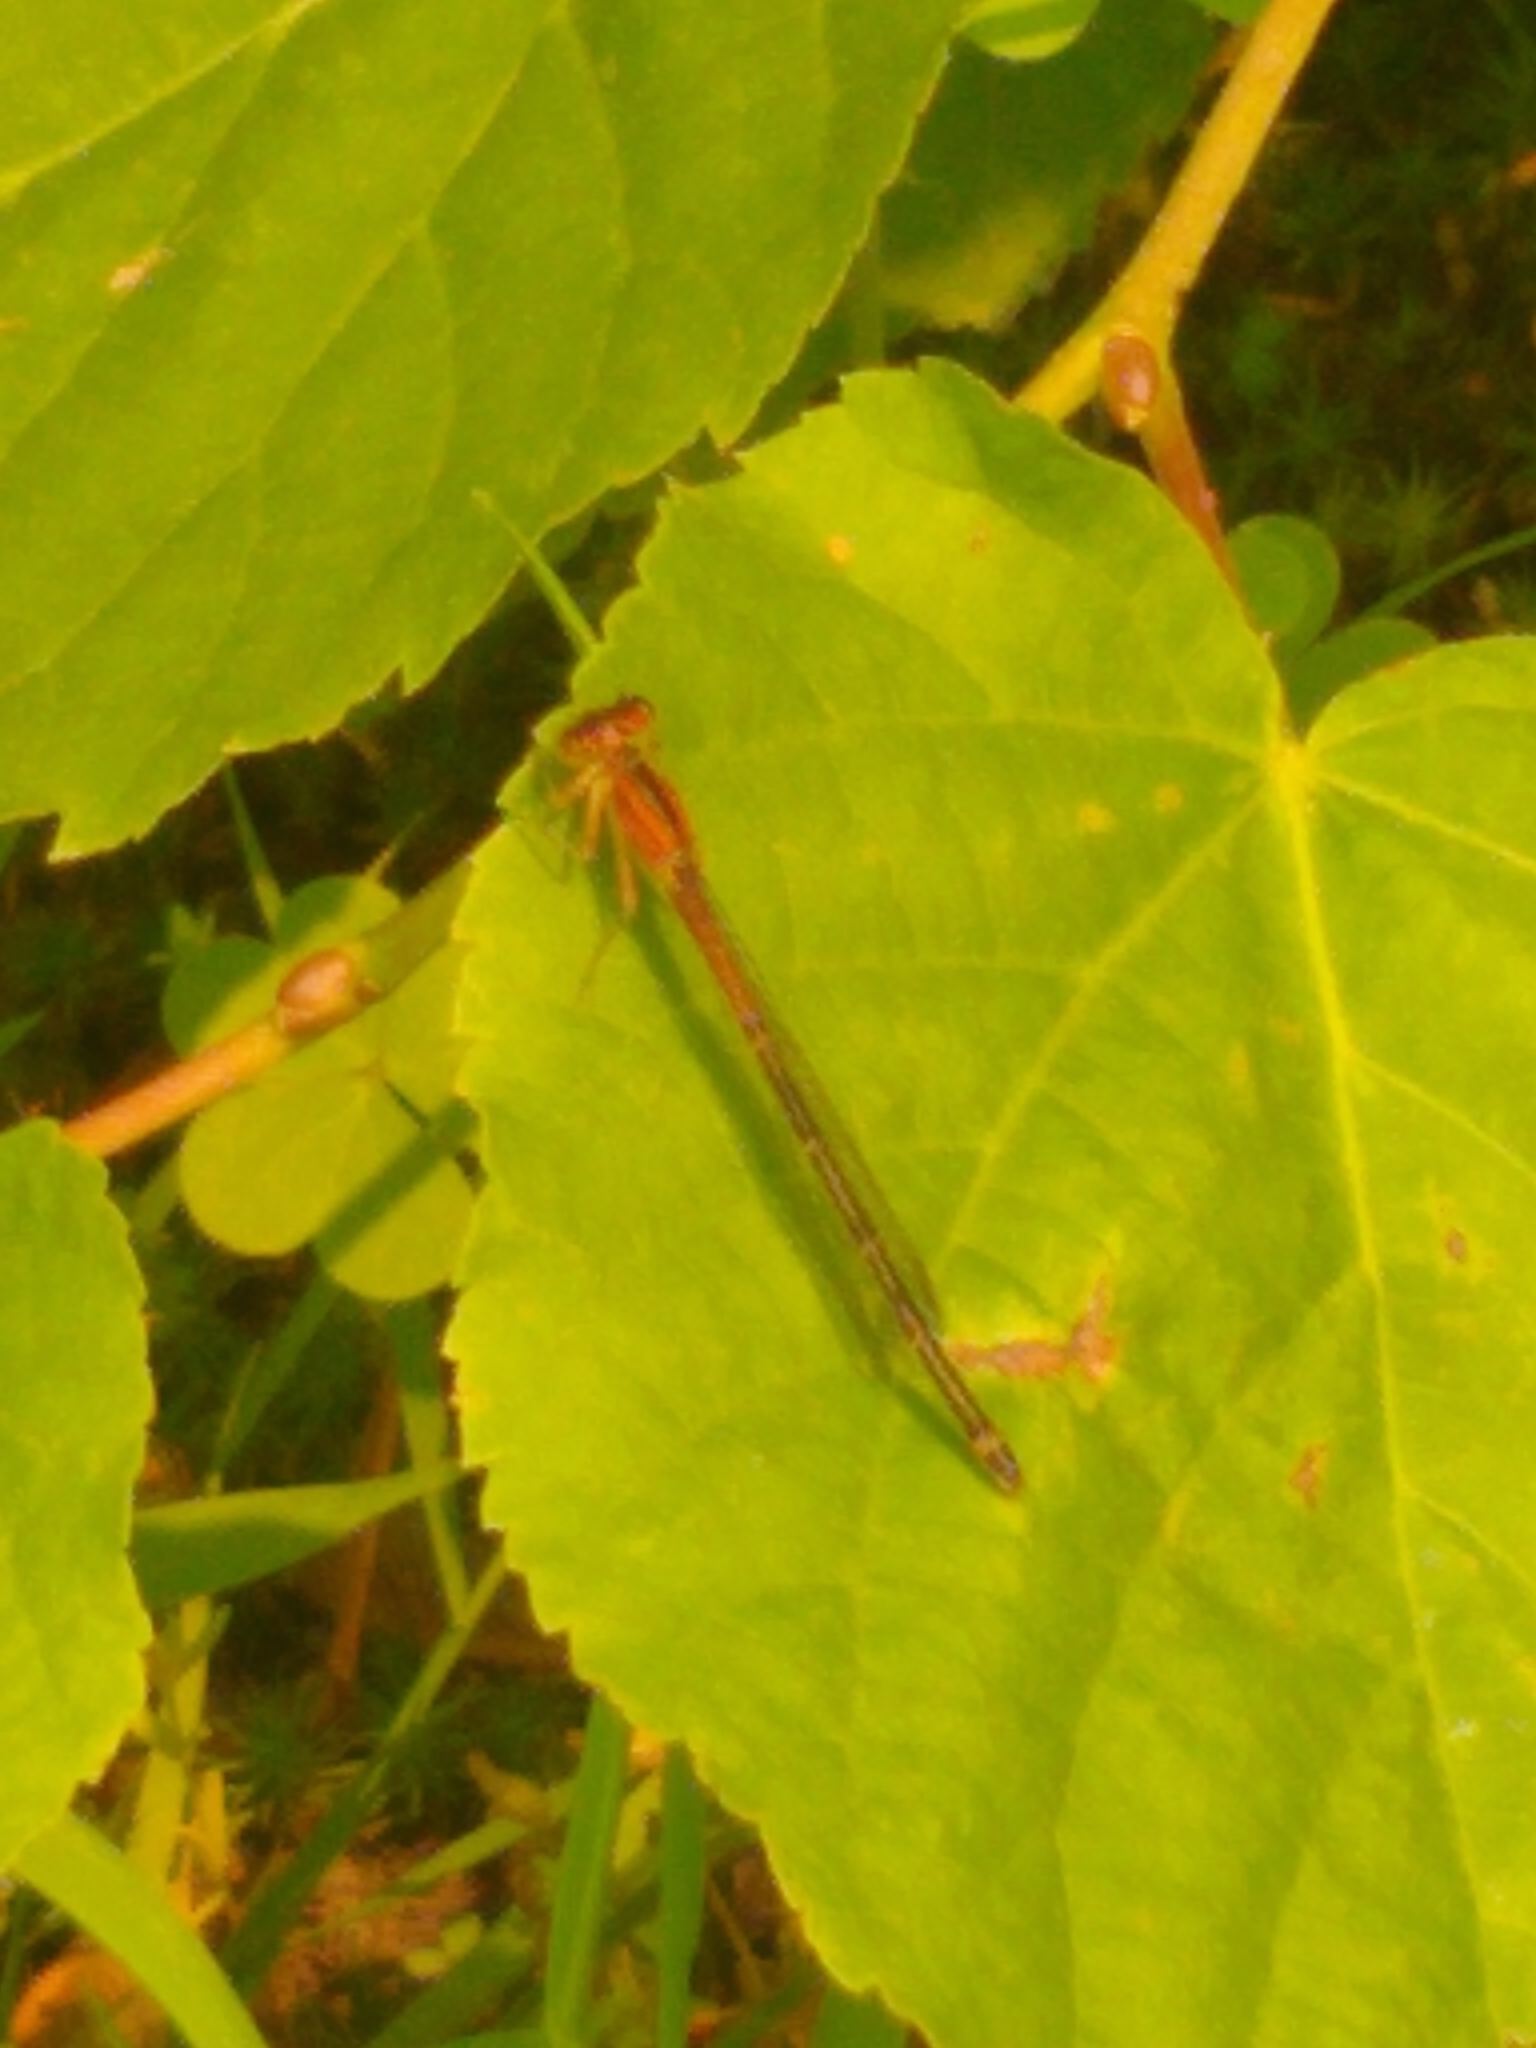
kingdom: Animalia
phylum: Arthropoda
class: Insecta
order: Odonata
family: Coenagrionidae
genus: Ischnura
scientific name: Ischnura verticalis
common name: Eastern forktail
